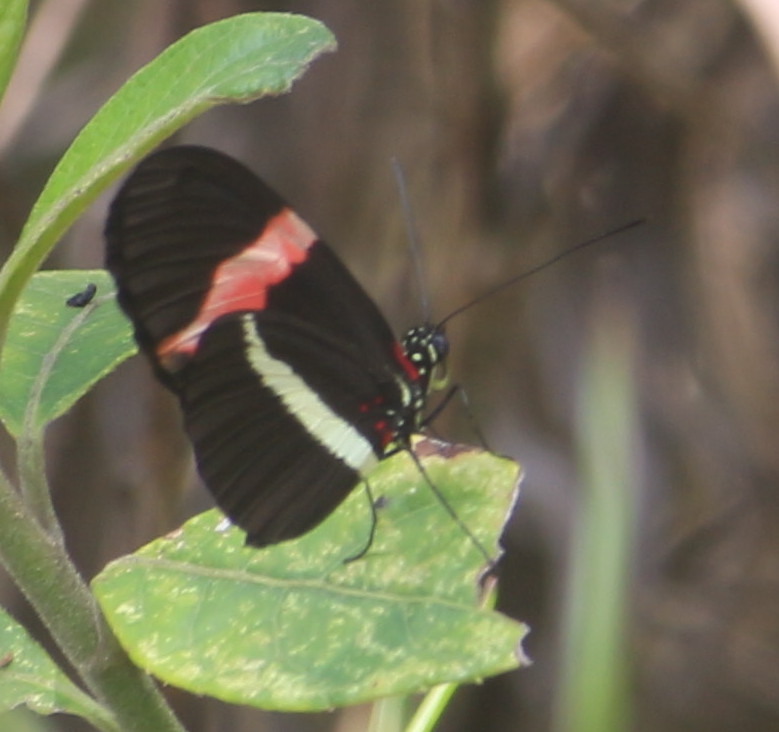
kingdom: Animalia
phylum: Arthropoda
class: Insecta
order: Lepidoptera
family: Nymphalidae
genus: Heliconius
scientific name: Heliconius erato
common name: Common patch longwing
